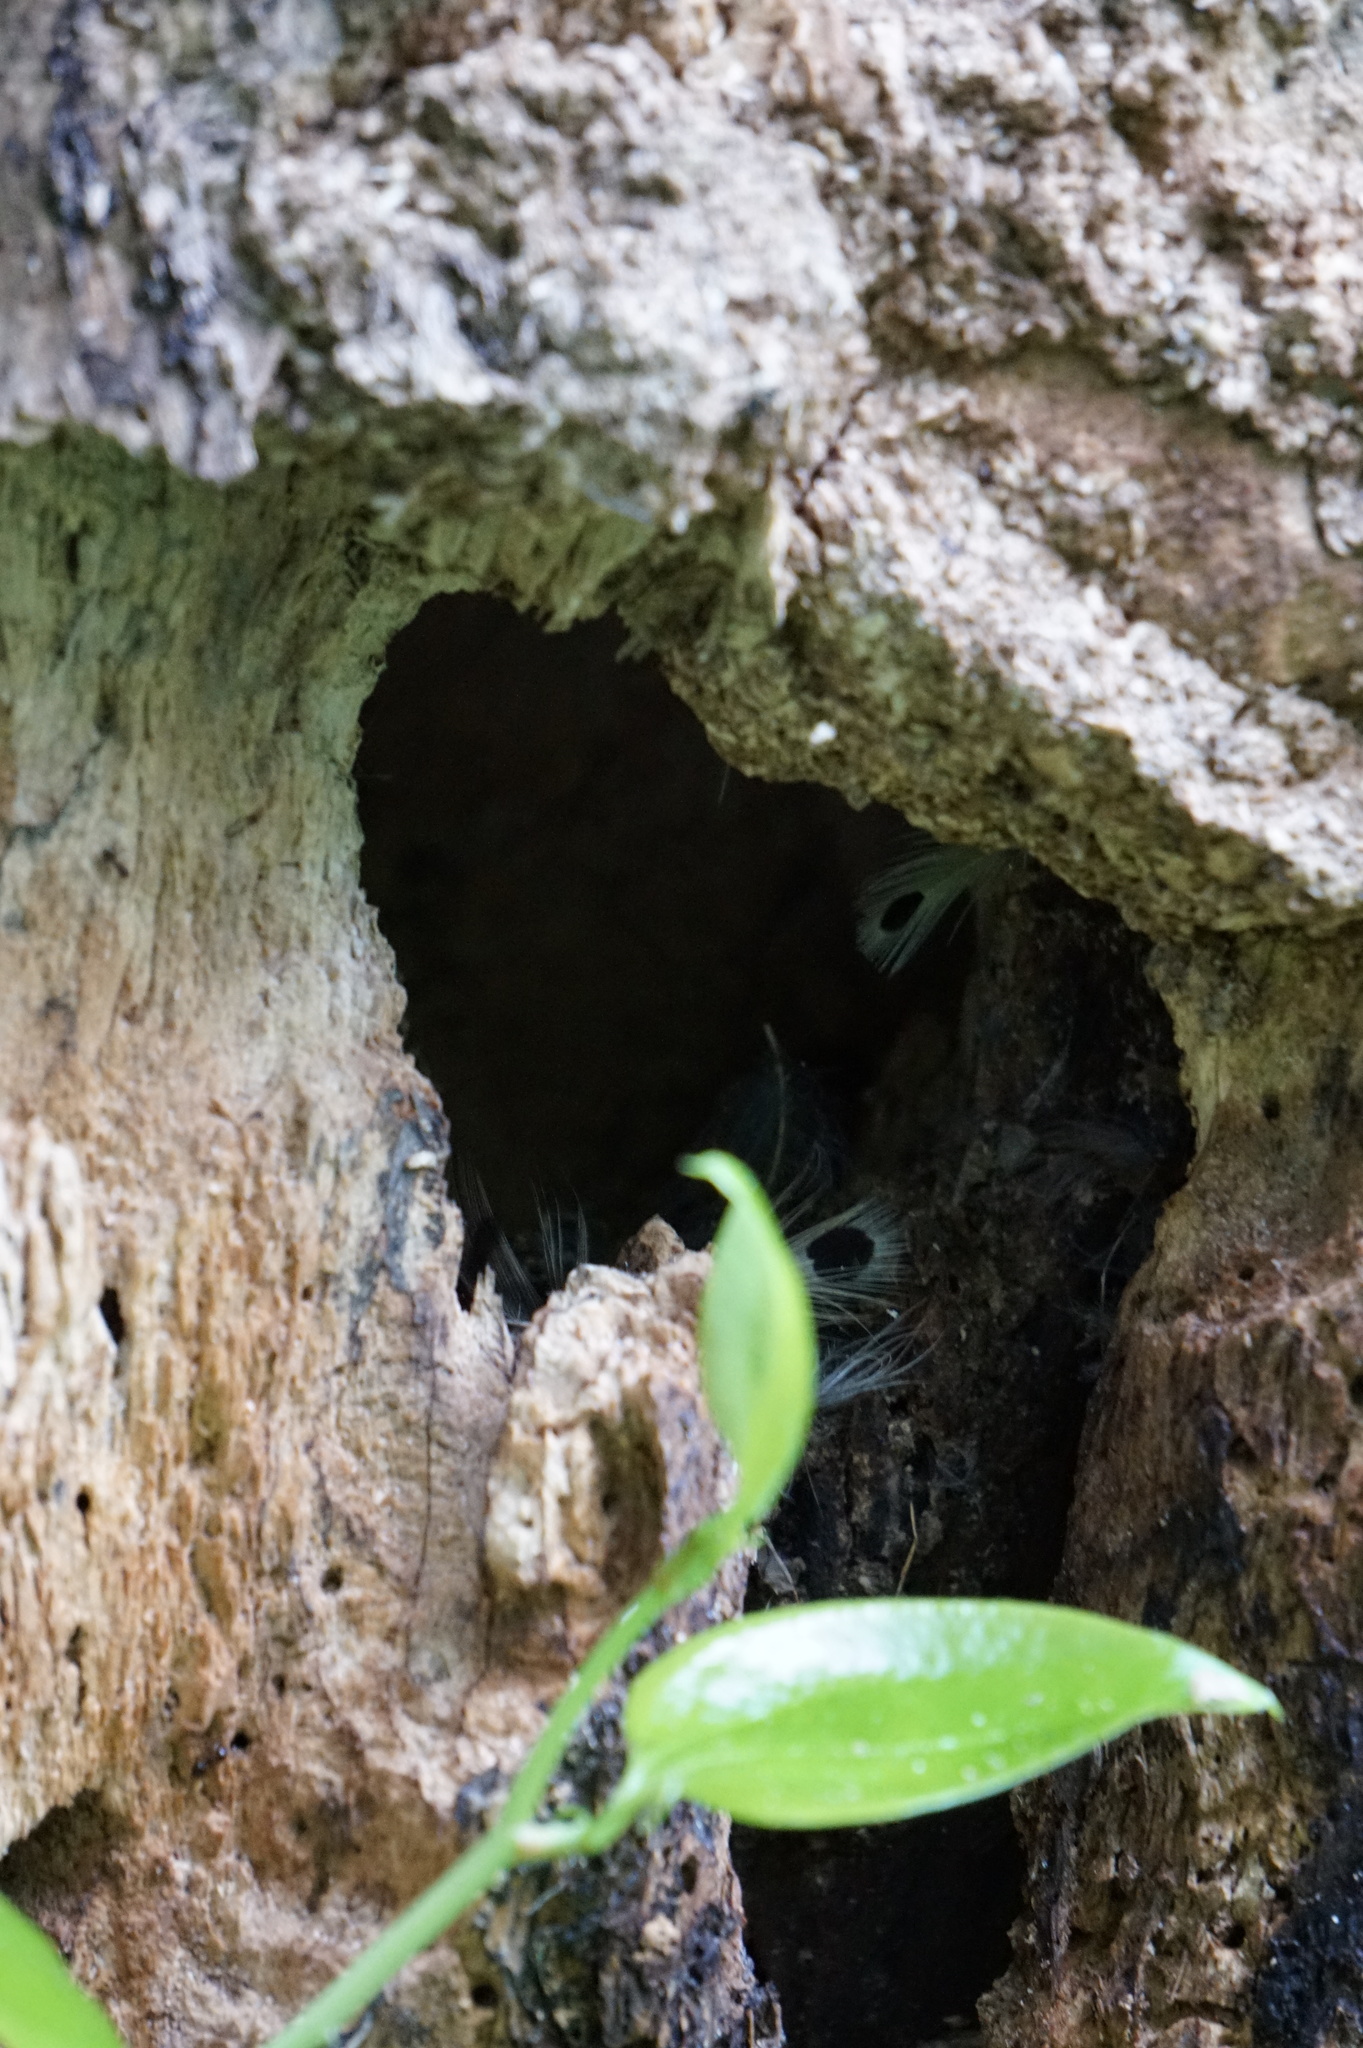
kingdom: Animalia
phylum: Chordata
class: Aves
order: Piciformes
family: Picidae
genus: Colaptes
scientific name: Colaptes auratus
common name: Northern flicker
